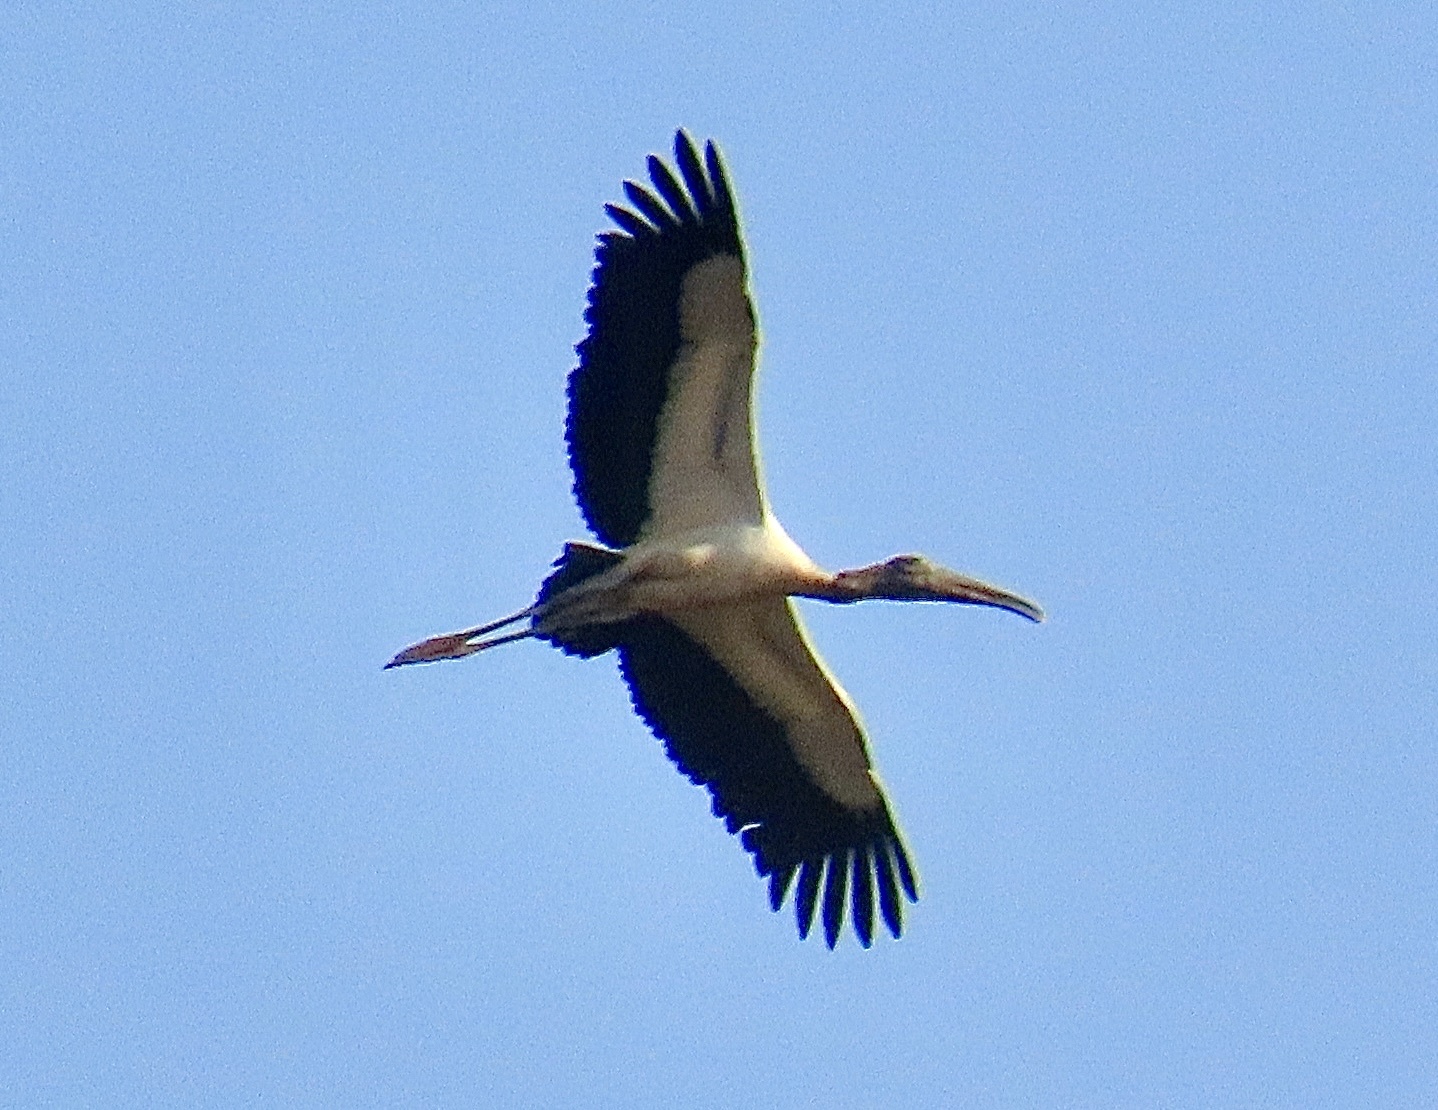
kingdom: Animalia
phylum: Chordata
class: Aves
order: Ciconiiformes
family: Ciconiidae
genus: Mycteria
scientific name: Mycteria americana
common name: Wood stork
